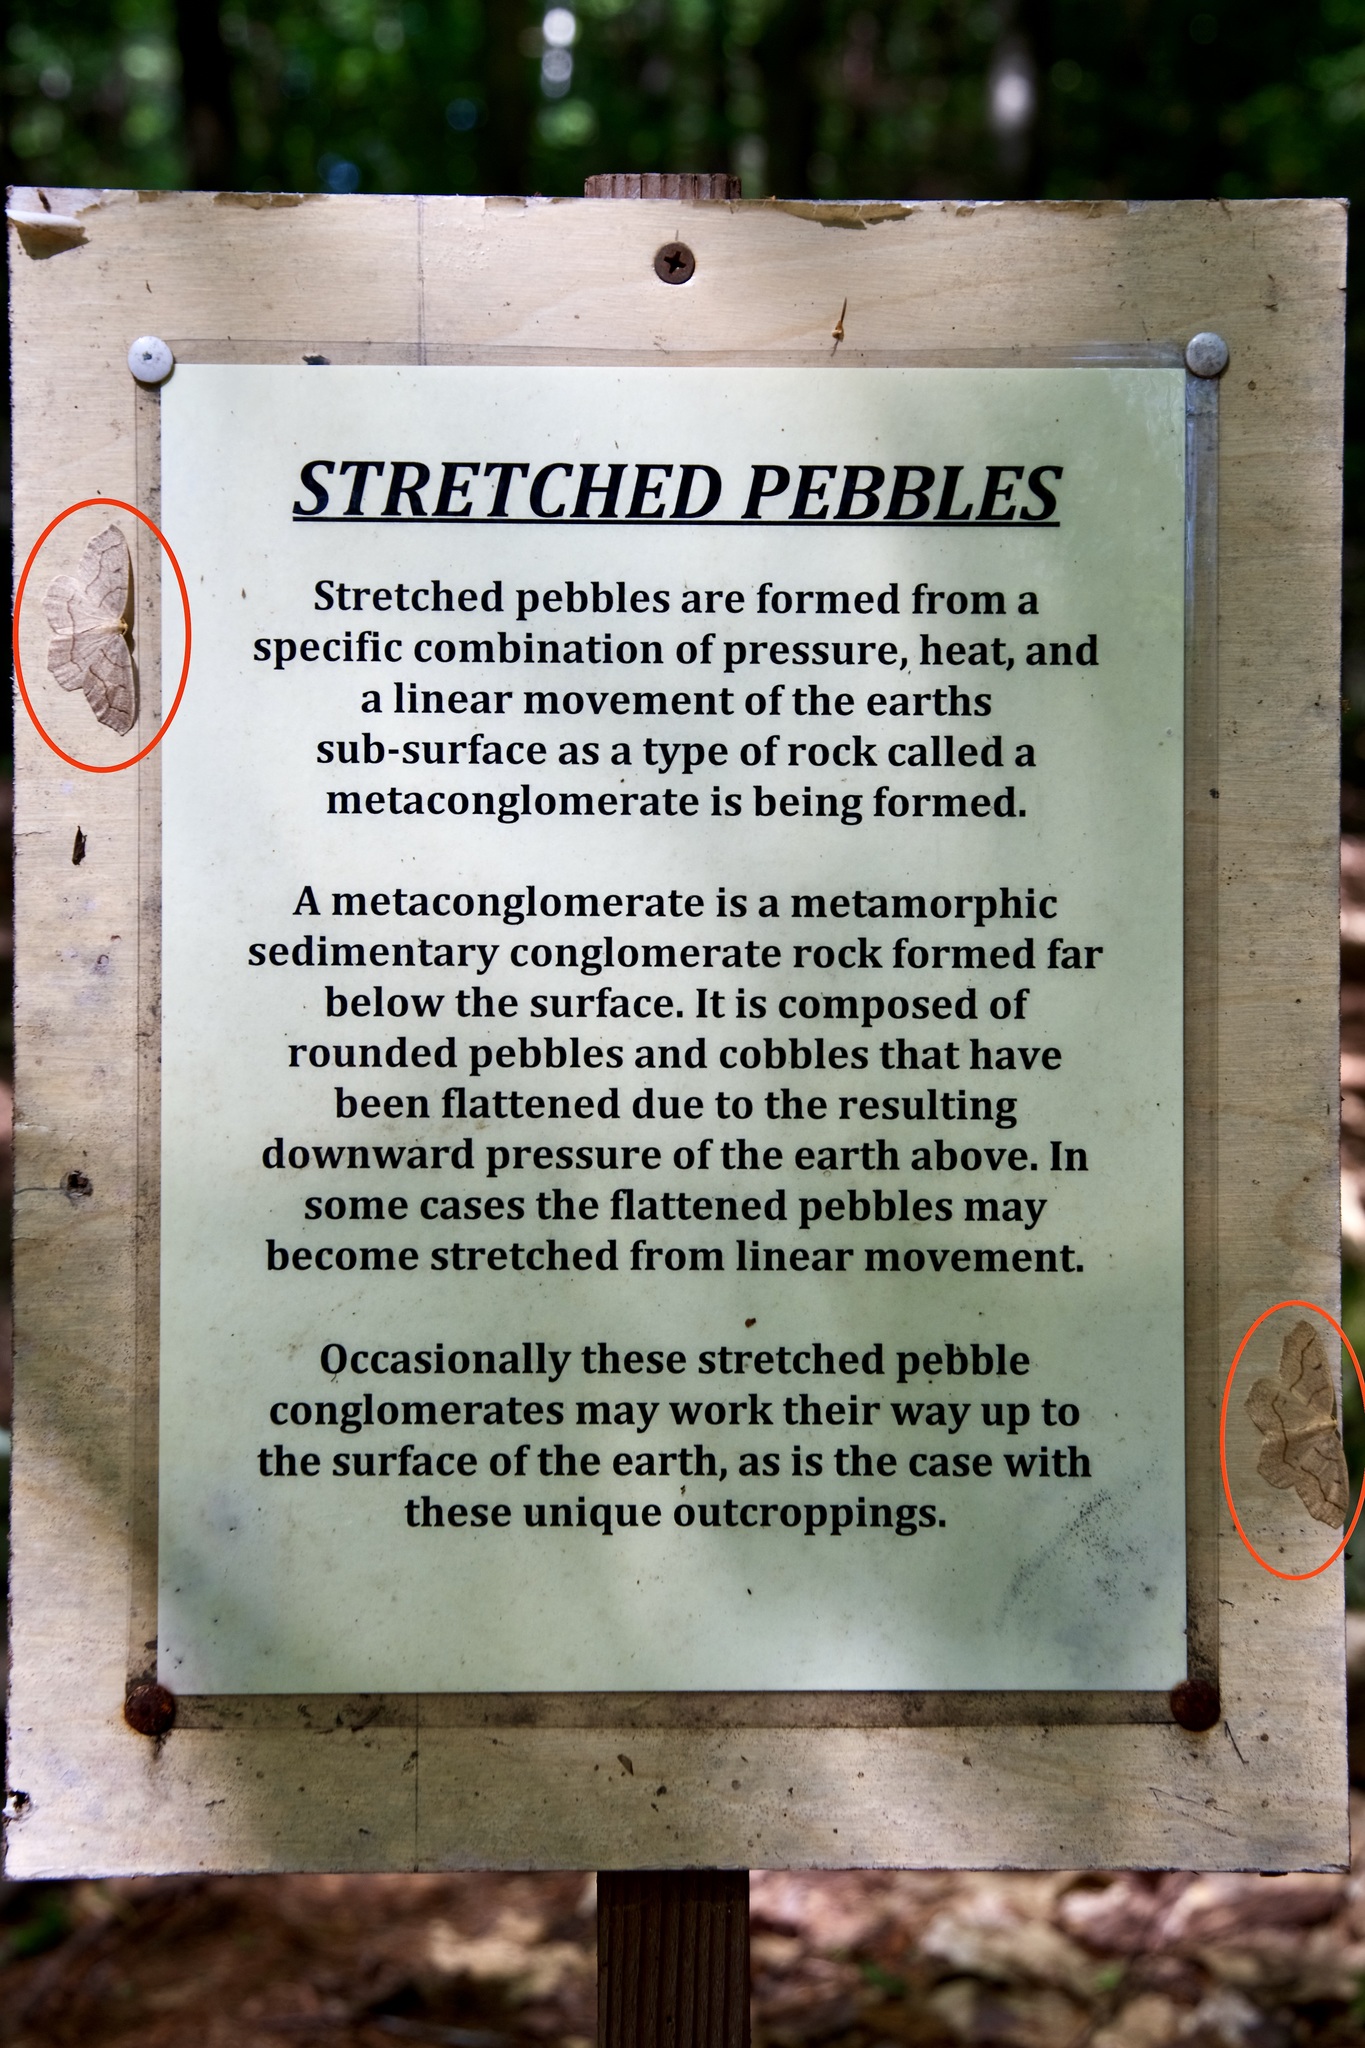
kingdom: Animalia
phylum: Arthropoda
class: Insecta
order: Lepidoptera
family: Geometridae
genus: Lambdina
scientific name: Lambdina fiscellaria
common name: Hemlock looper
